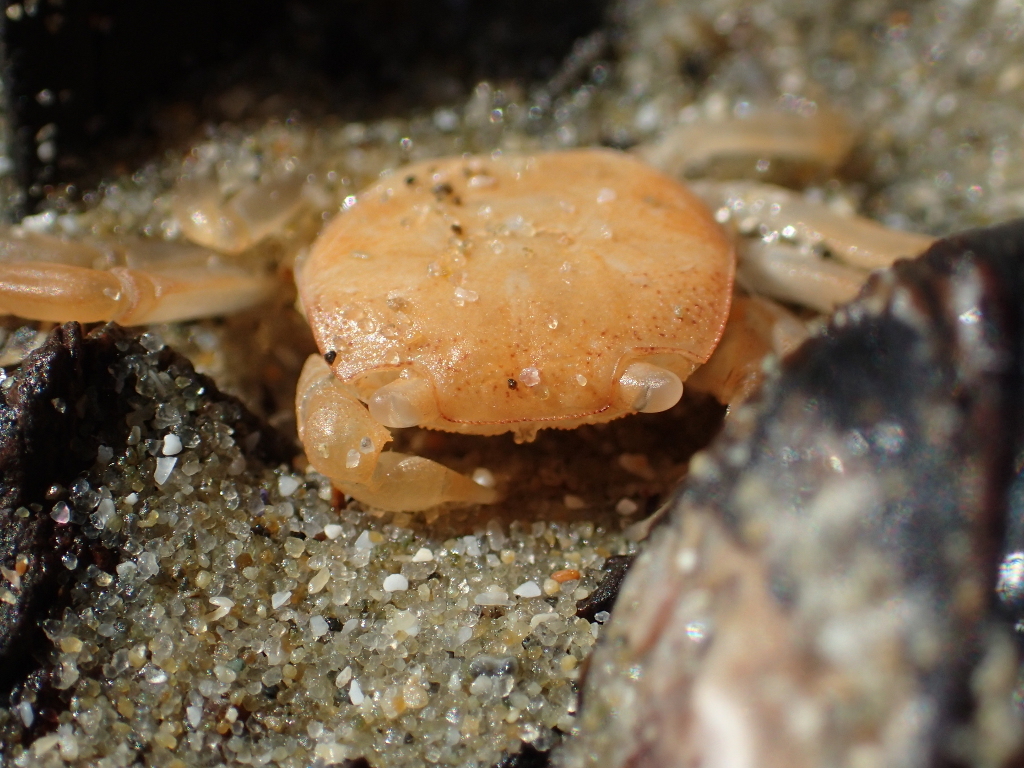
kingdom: Animalia
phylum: Arthropoda
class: Malacostraca
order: Decapoda
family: Varunidae
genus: Cyclograpsus
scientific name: Cyclograpsus lavauxi
